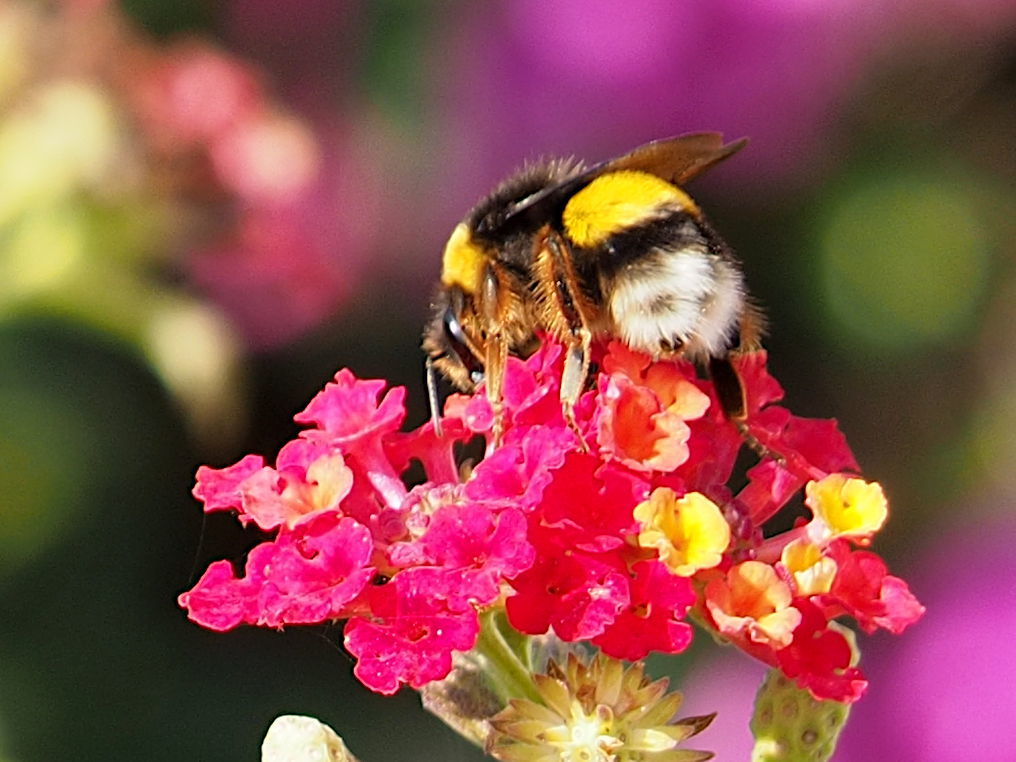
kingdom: Animalia
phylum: Arthropoda
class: Insecta
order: Hymenoptera
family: Apidae
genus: Bombus
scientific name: Bombus terrestris
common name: Buff-tailed bumblebee
